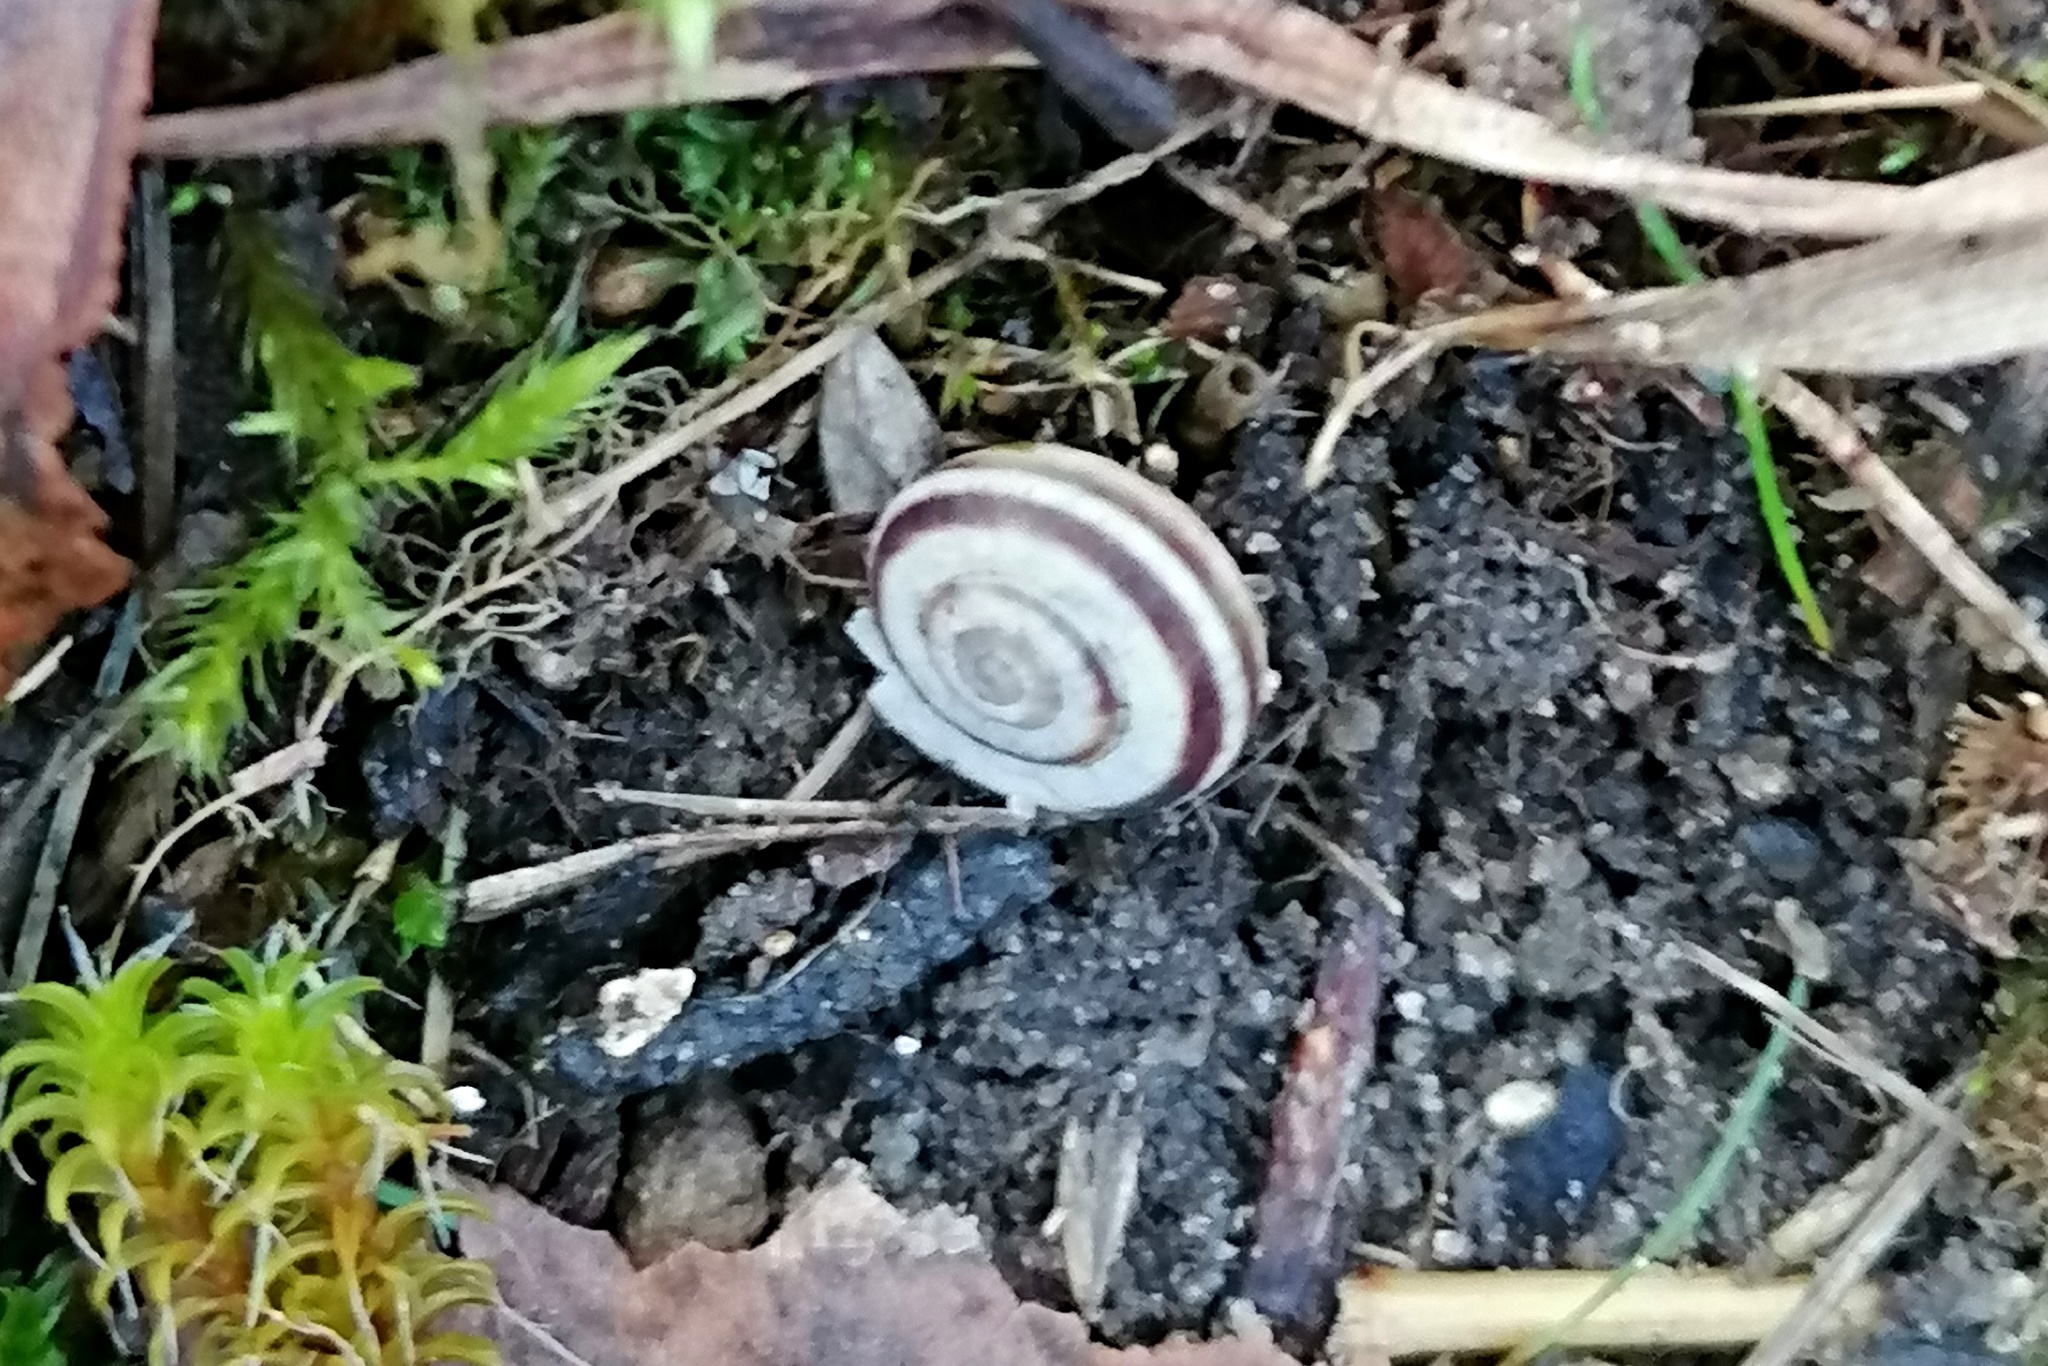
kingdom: Animalia
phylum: Mollusca
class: Gastropoda
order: Stylommatophora
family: Geomitridae
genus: Xerolenta
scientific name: Xerolenta obvia
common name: White heath snail
